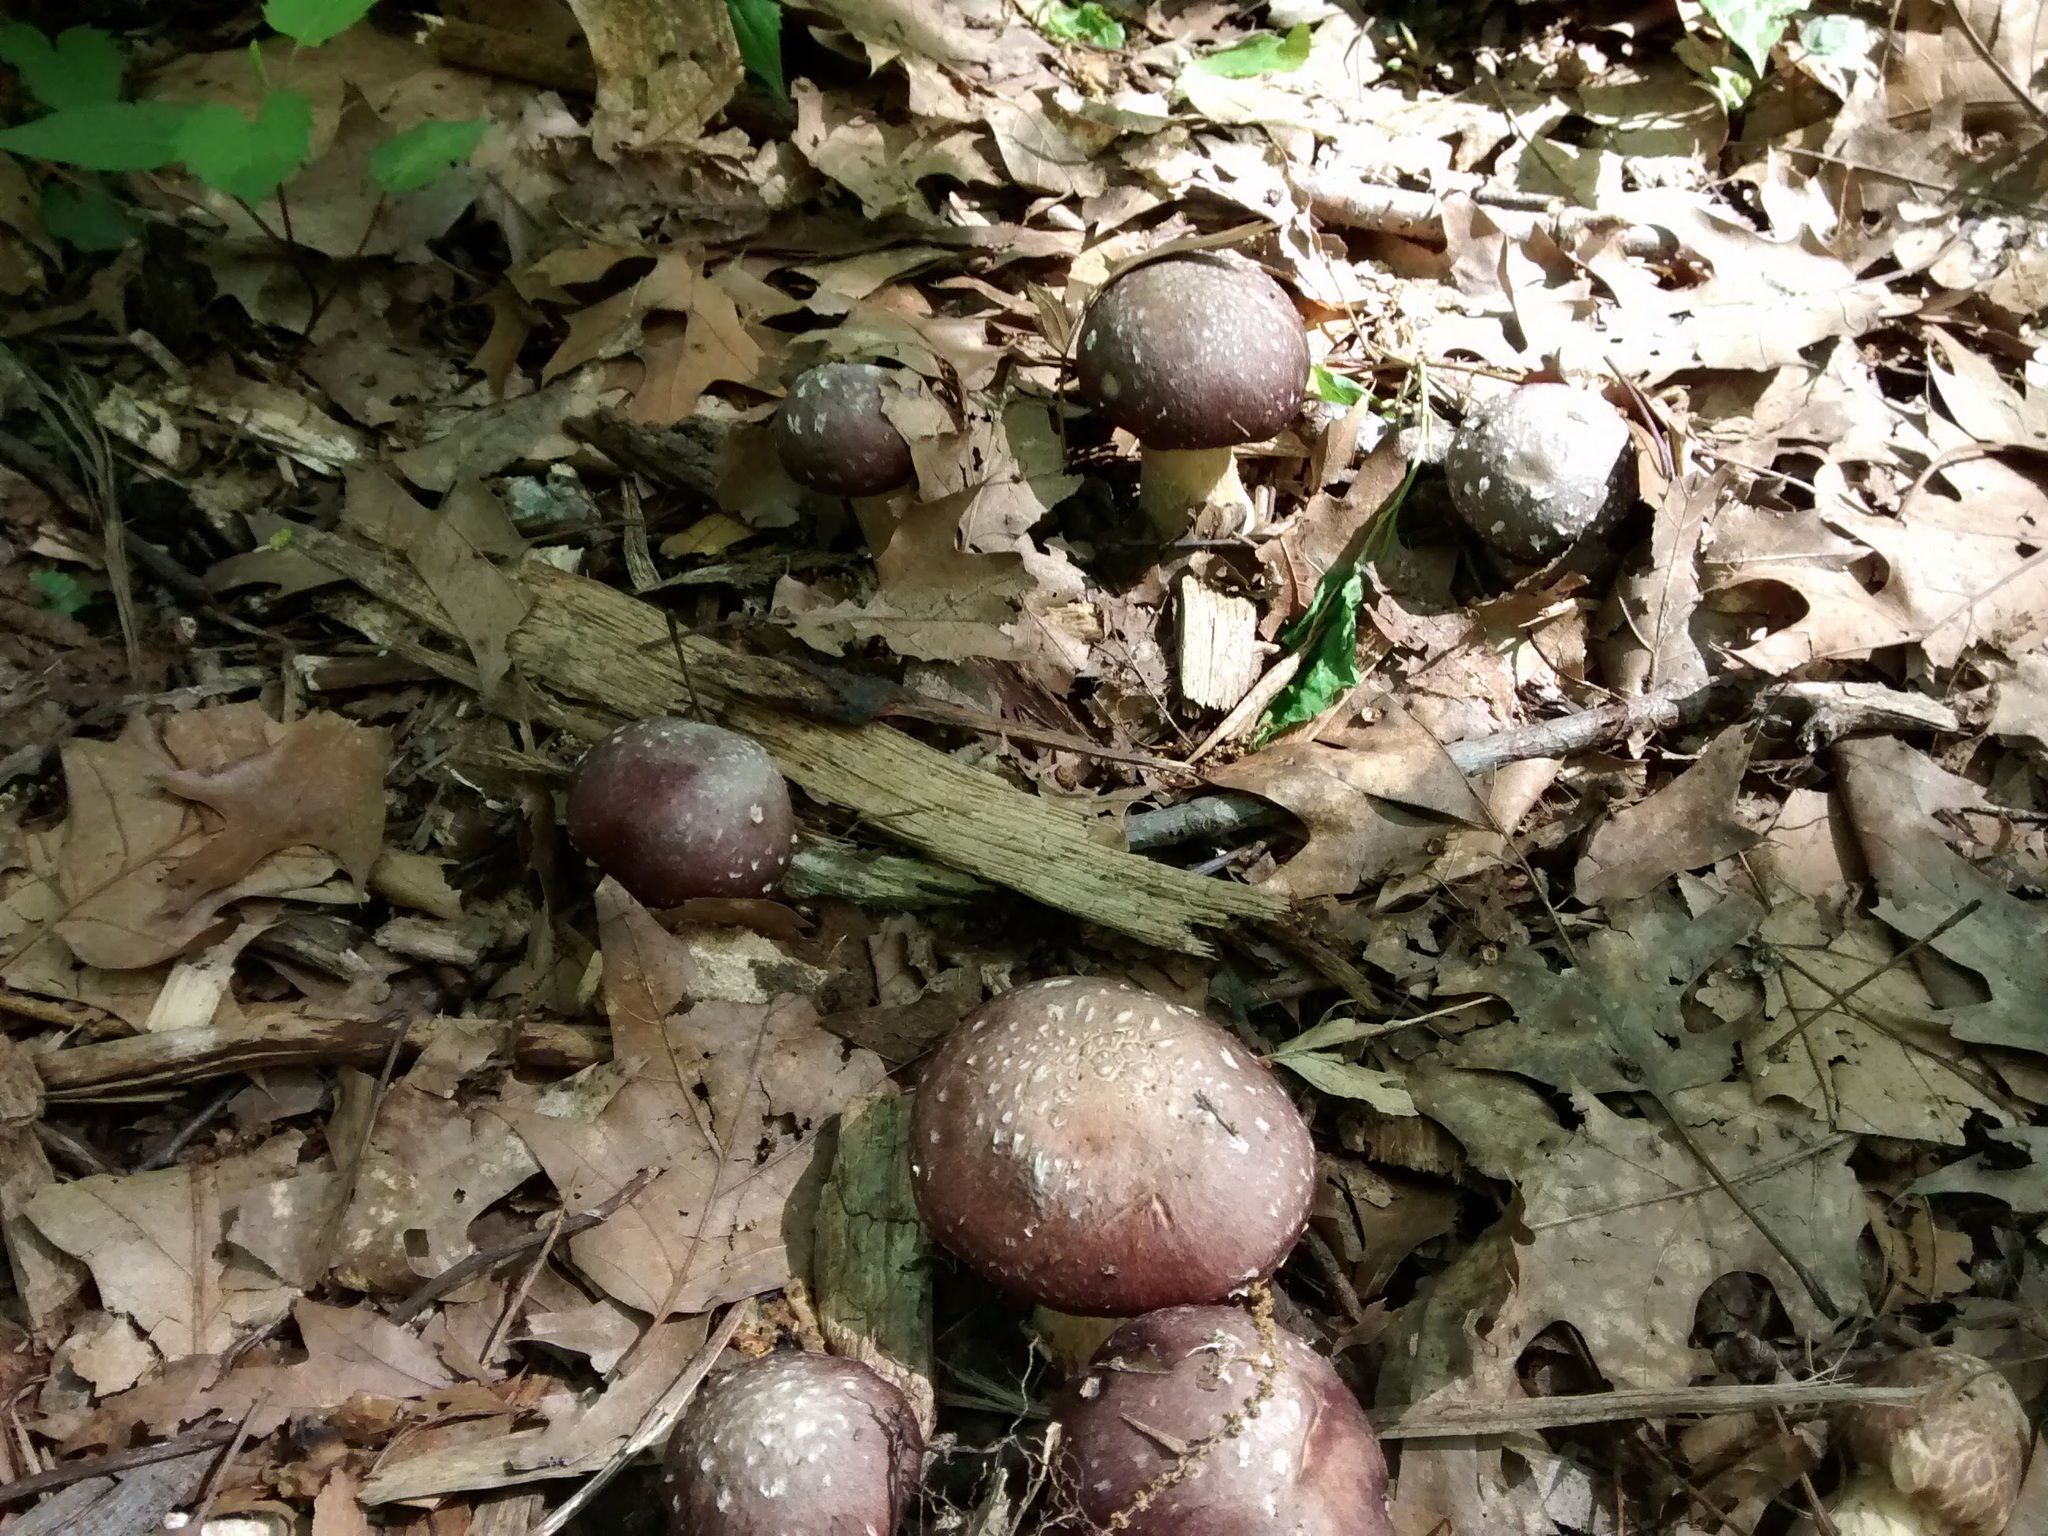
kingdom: Fungi
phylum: Basidiomycota
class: Agaricomycetes
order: Agaricales
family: Strophariaceae
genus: Stropharia
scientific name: Stropharia rugosoannulata
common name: Wine roundhead
